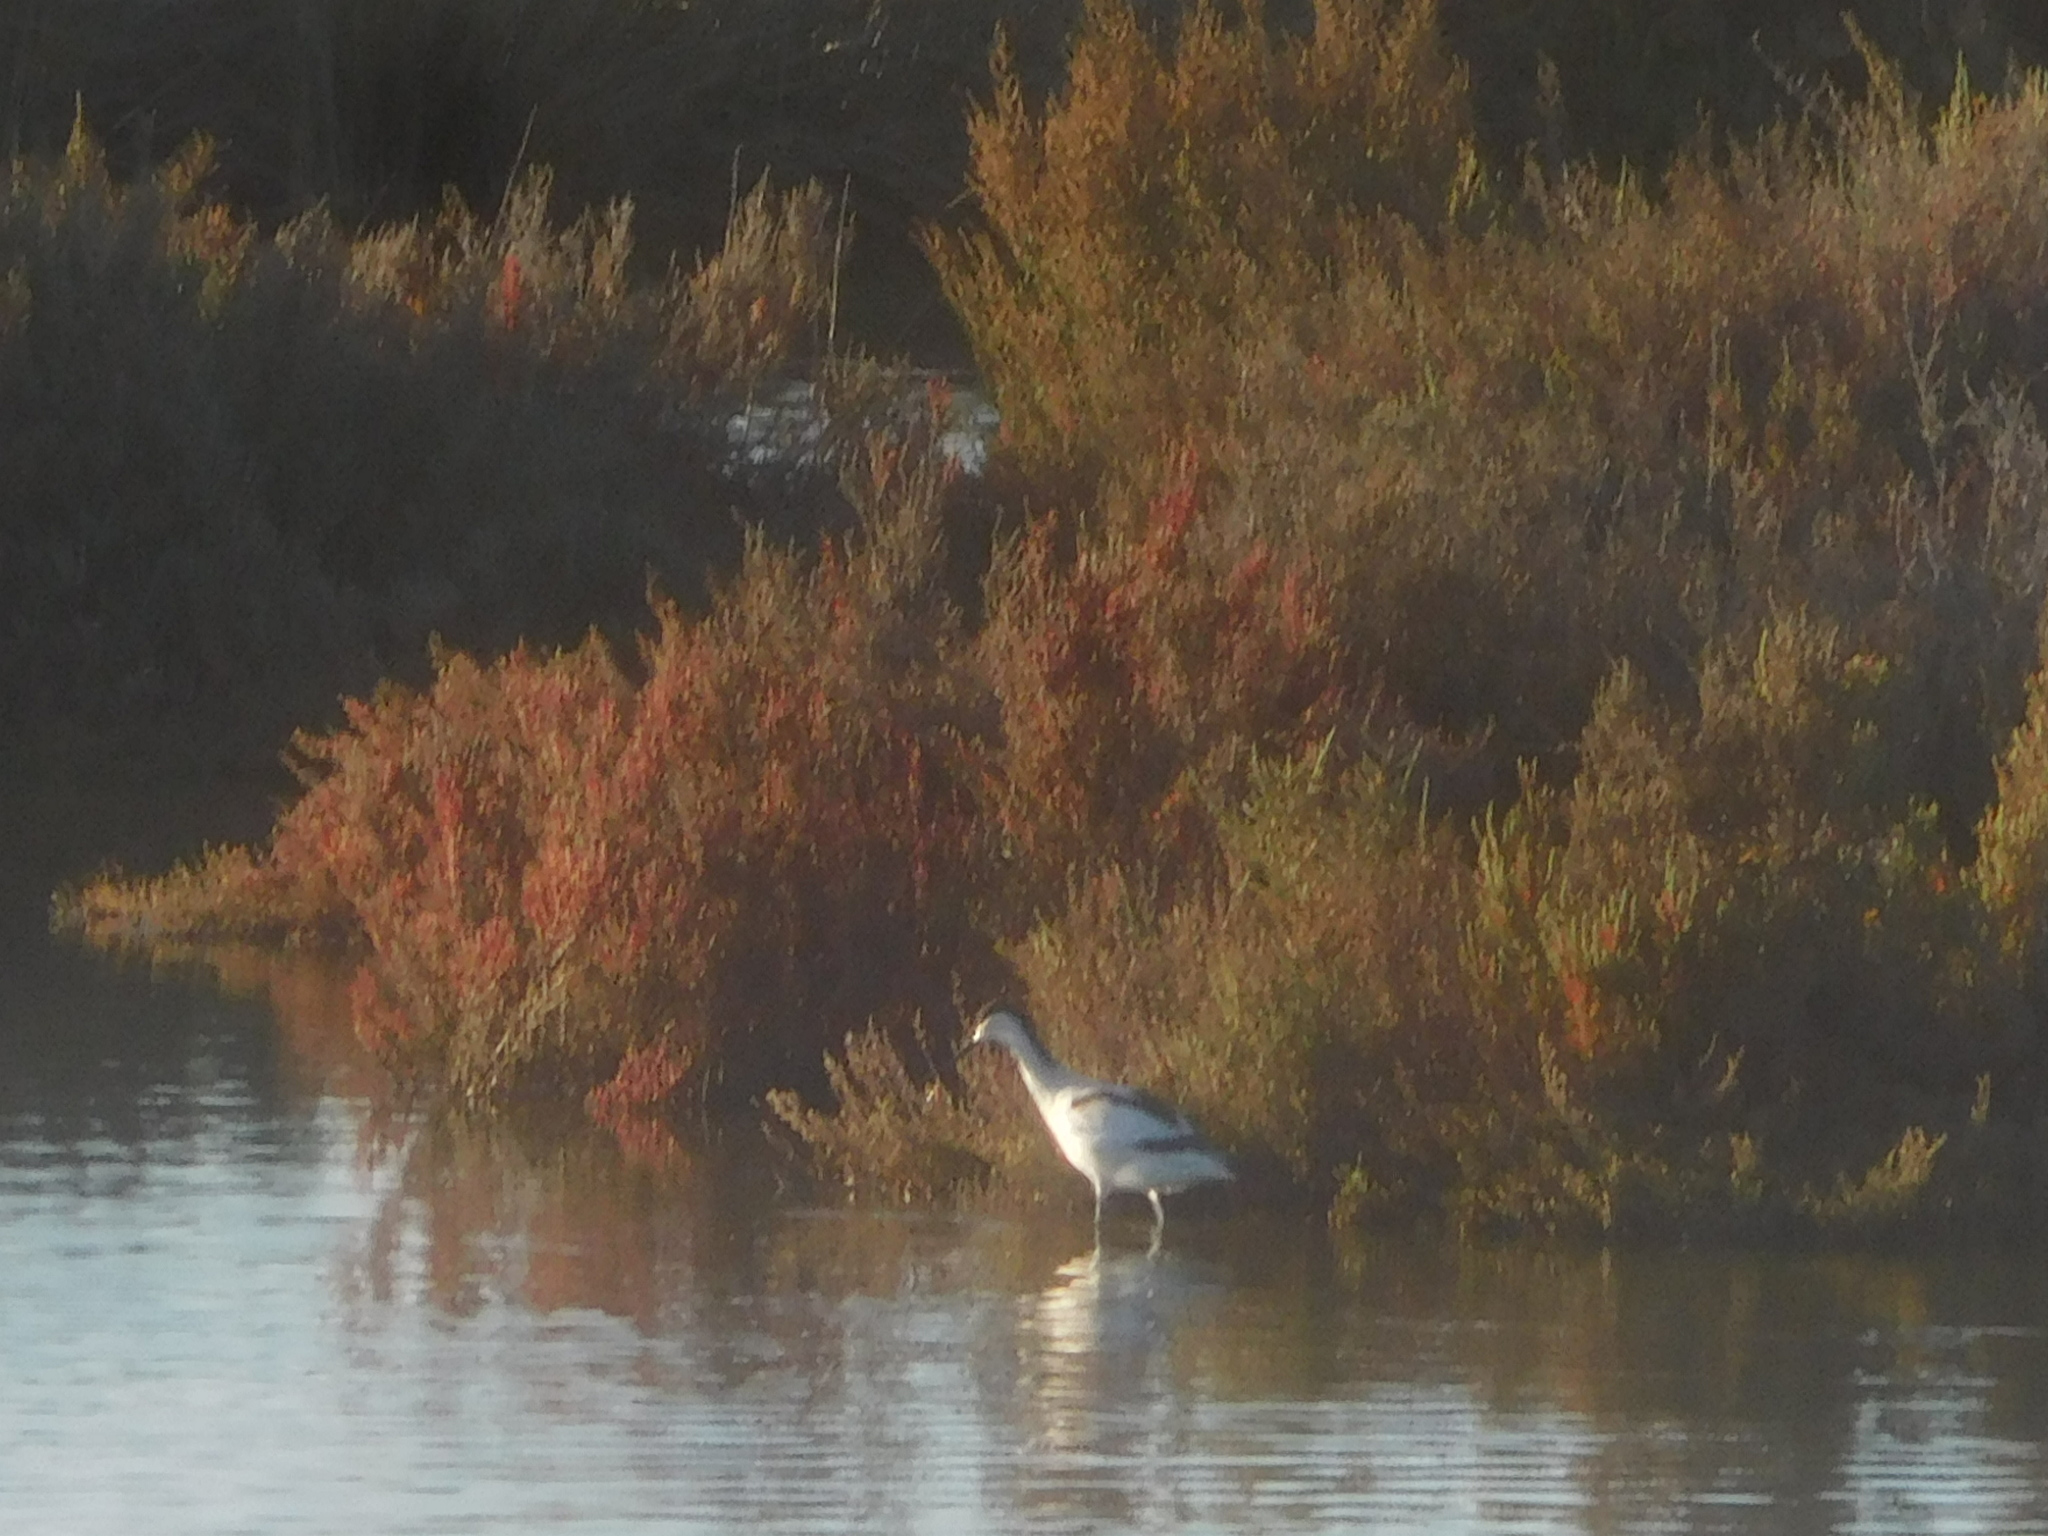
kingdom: Animalia
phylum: Chordata
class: Aves
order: Charadriiformes
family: Recurvirostridae
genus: Recurvirostra
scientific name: Recurvirostra avosetta
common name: Pied avocet
